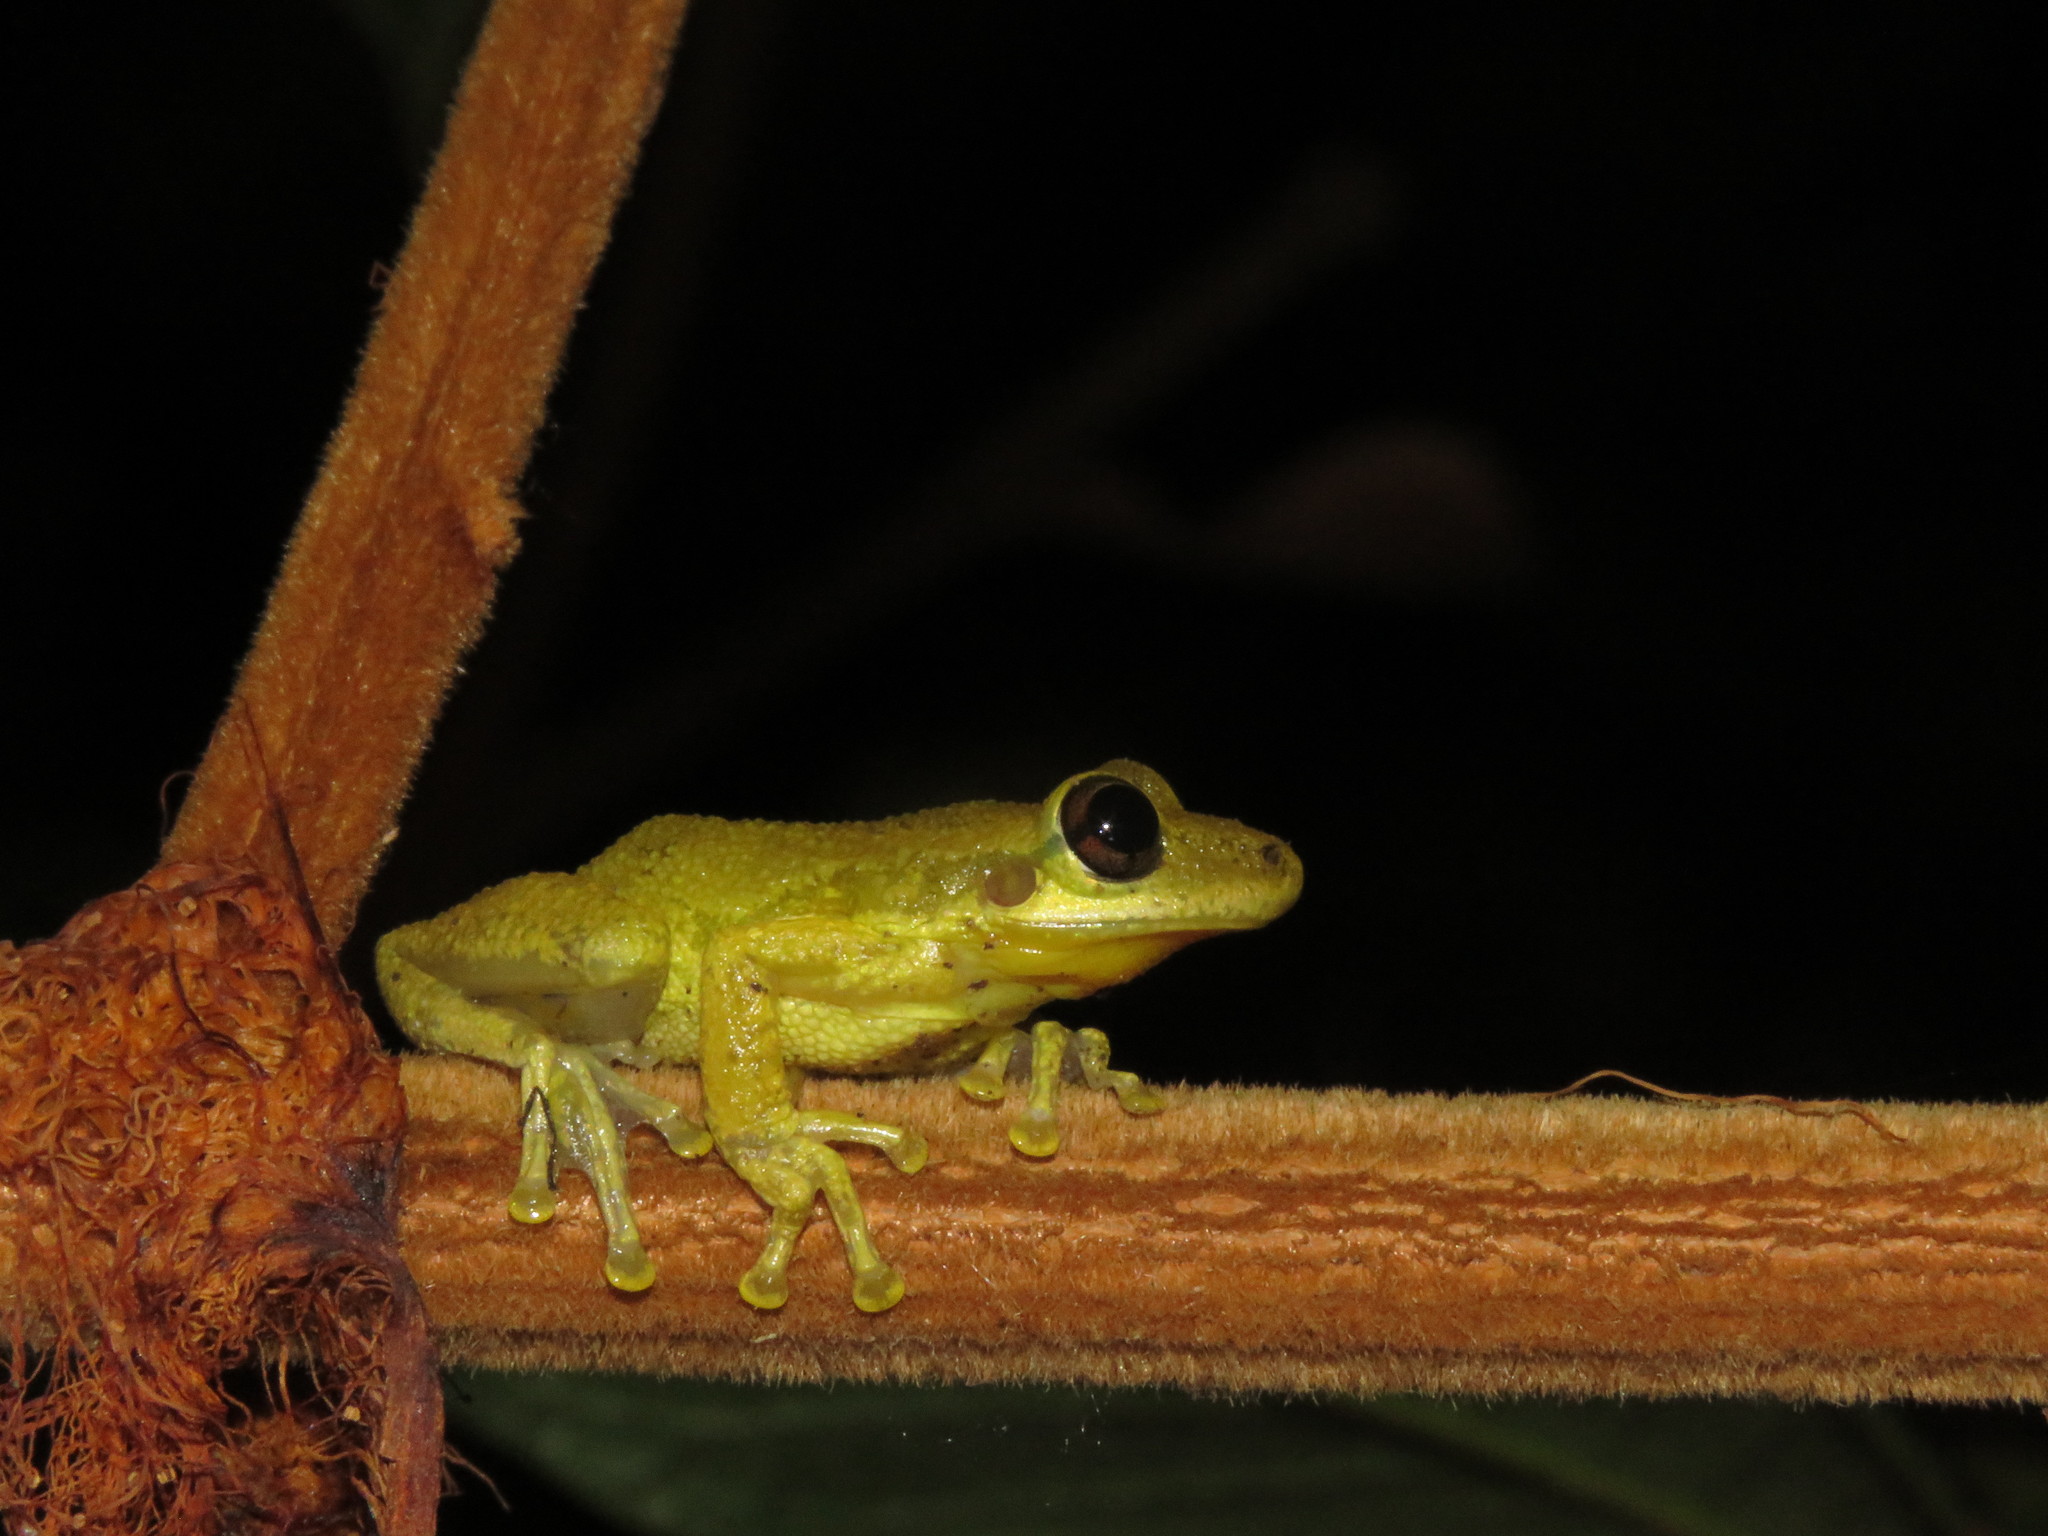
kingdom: Animalia
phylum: Chordata
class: Amphibia
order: Anura
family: Hylidae
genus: Scinax
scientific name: Scinax ruber
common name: Red snouted treefrog
